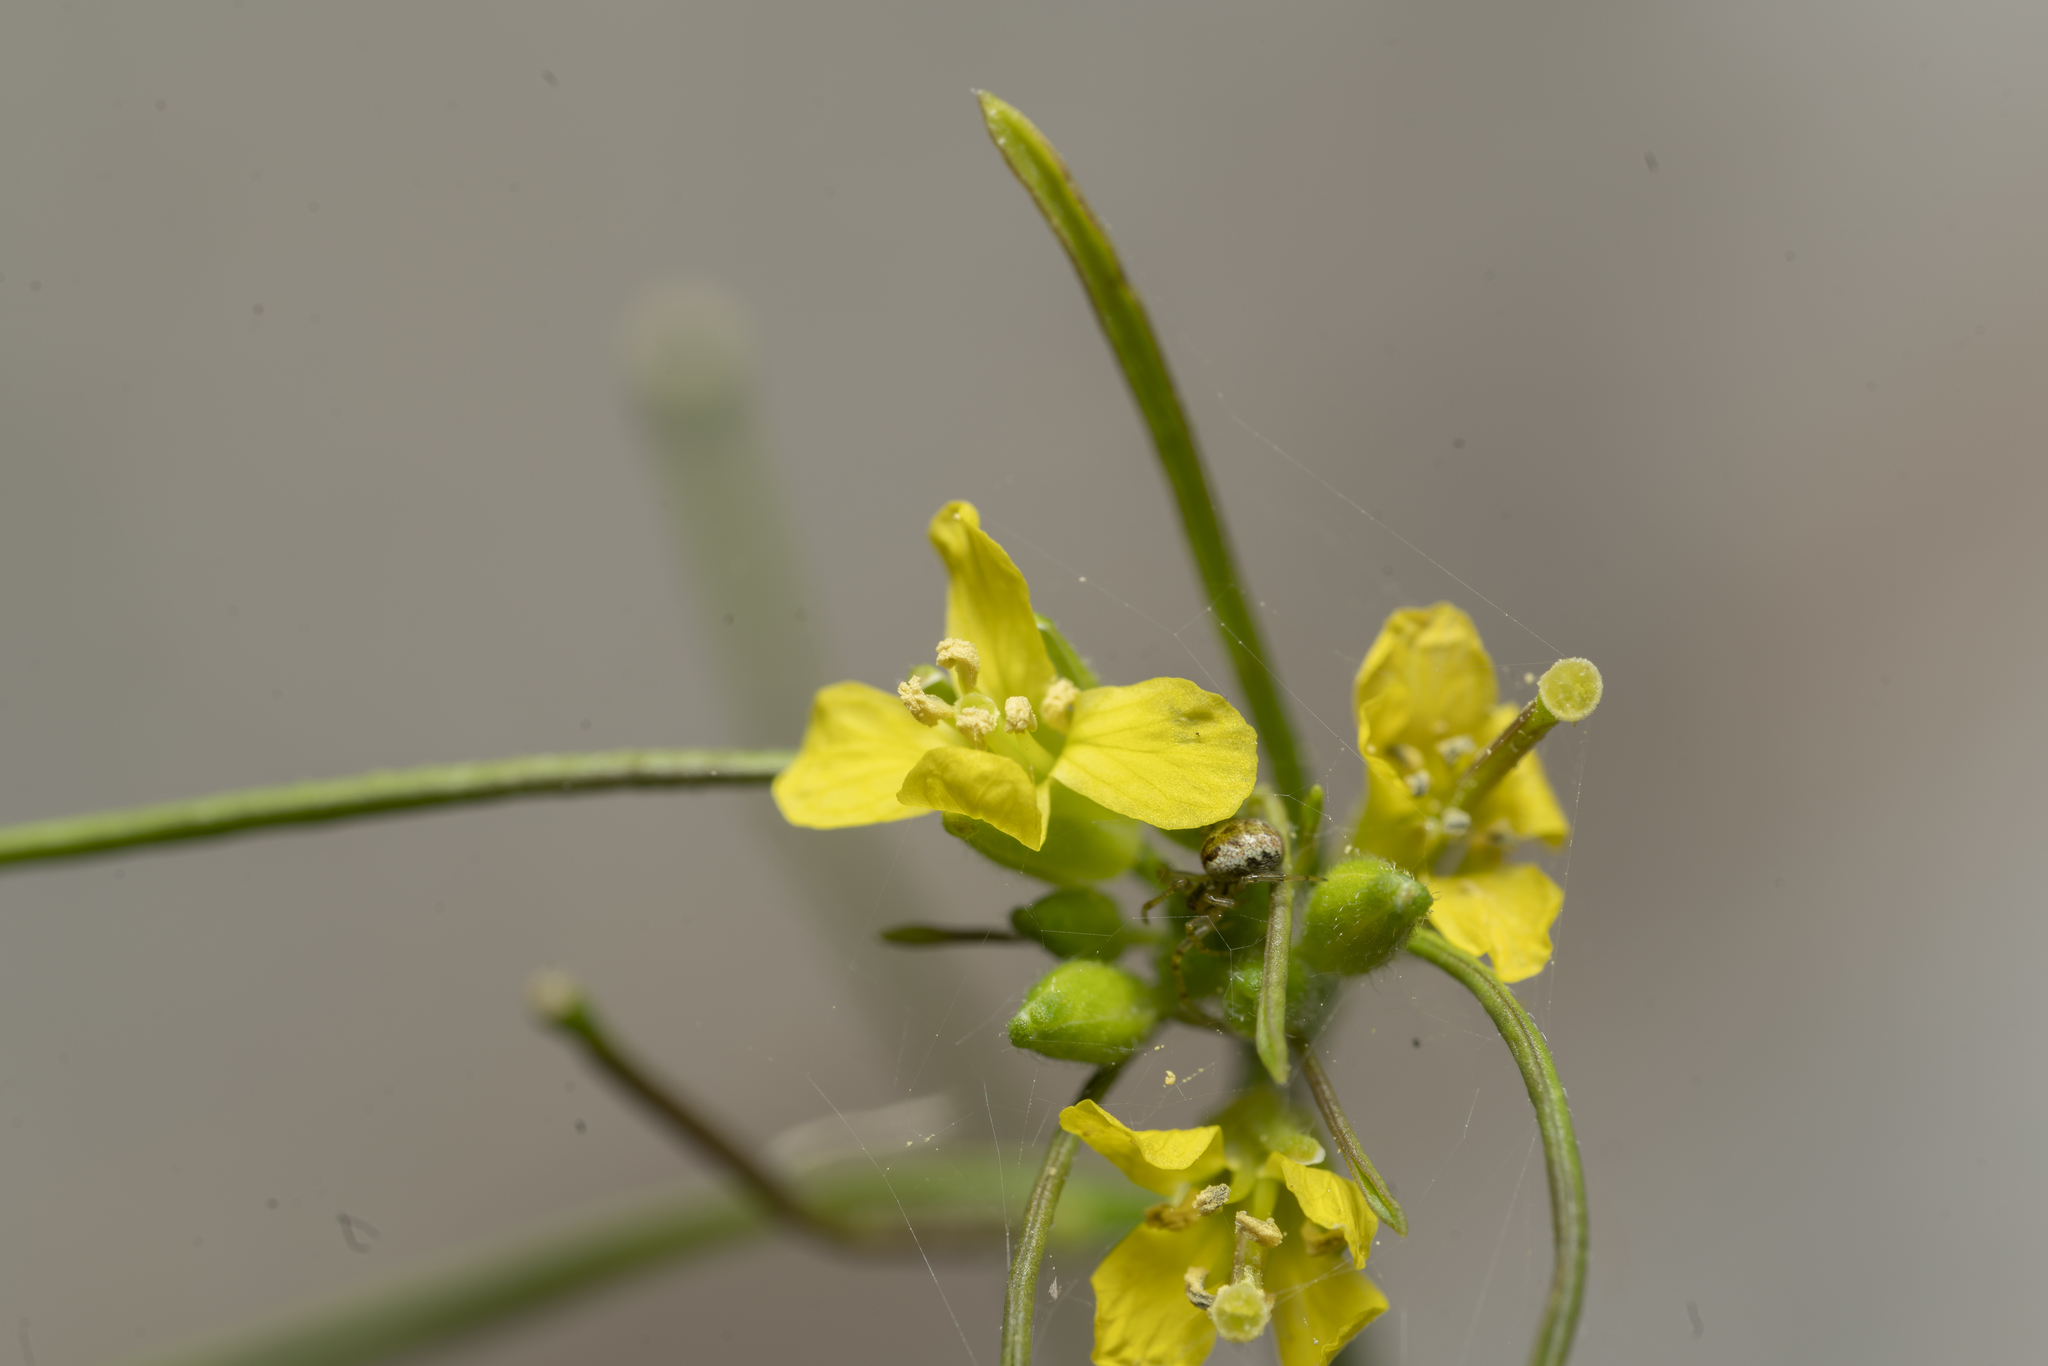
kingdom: Plantae
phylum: Tracheophyta
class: Magnoliopsida
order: Brassicales
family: Brassicaceae
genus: Sisymbrium
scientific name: Sisymbrium orientale
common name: Eastern rocket
